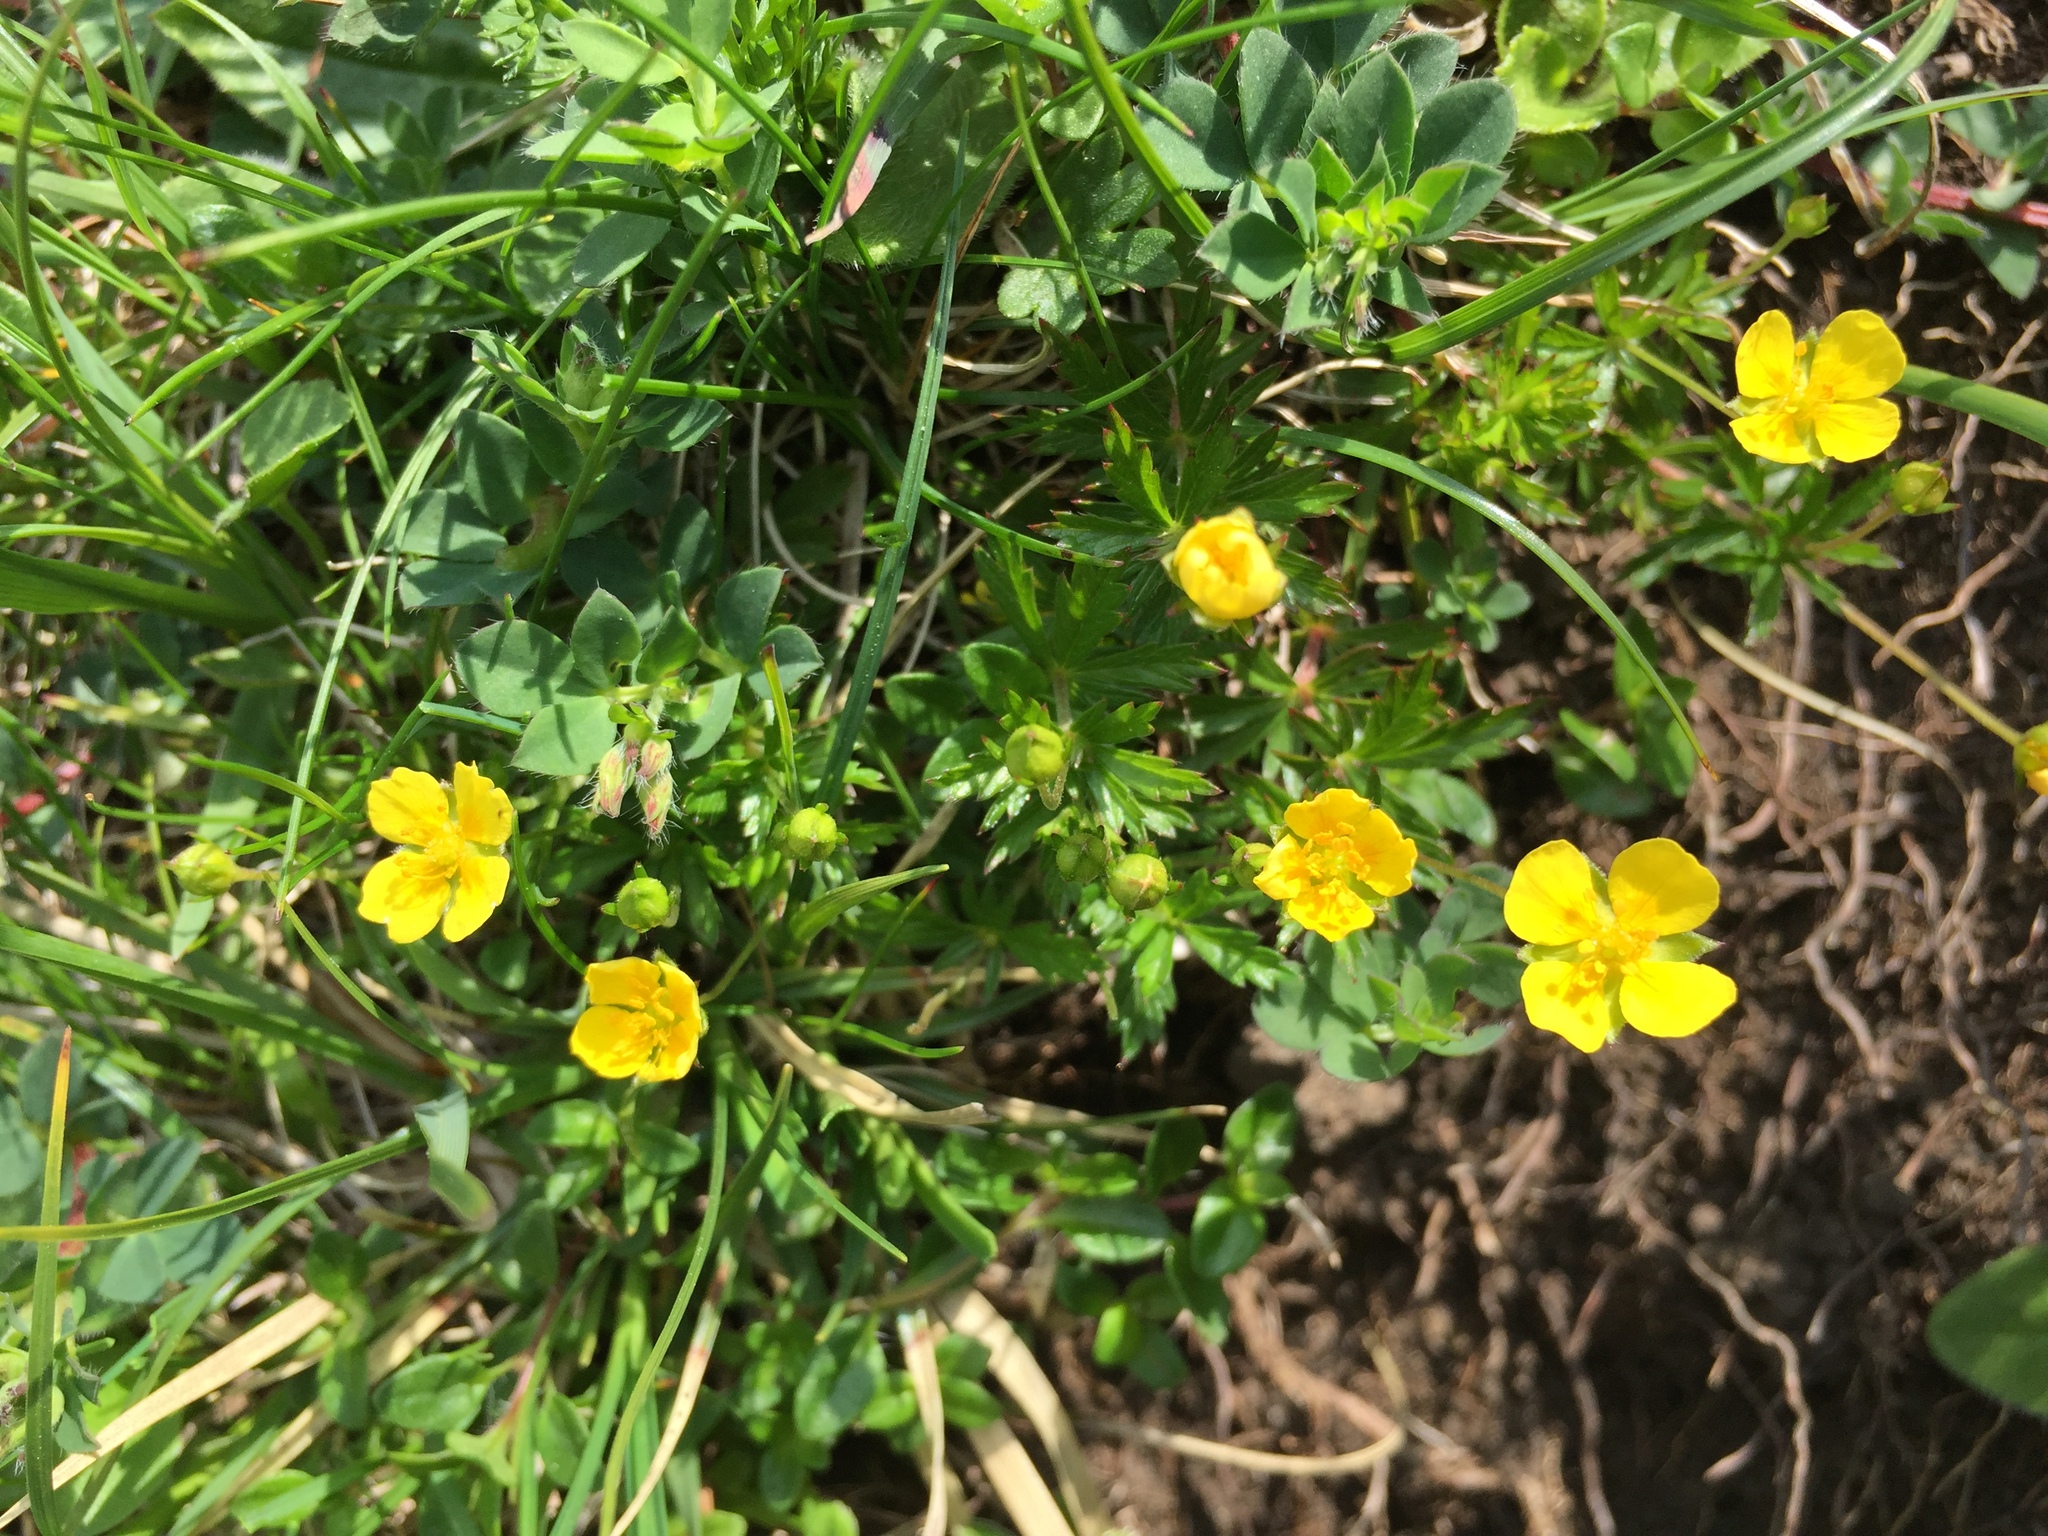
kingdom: Plantae
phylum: Tracheophyta
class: Magnoliopsida
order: Rosales
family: Rosaceae
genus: Potentilla
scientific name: Potentilla erecta
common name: Tormentil
